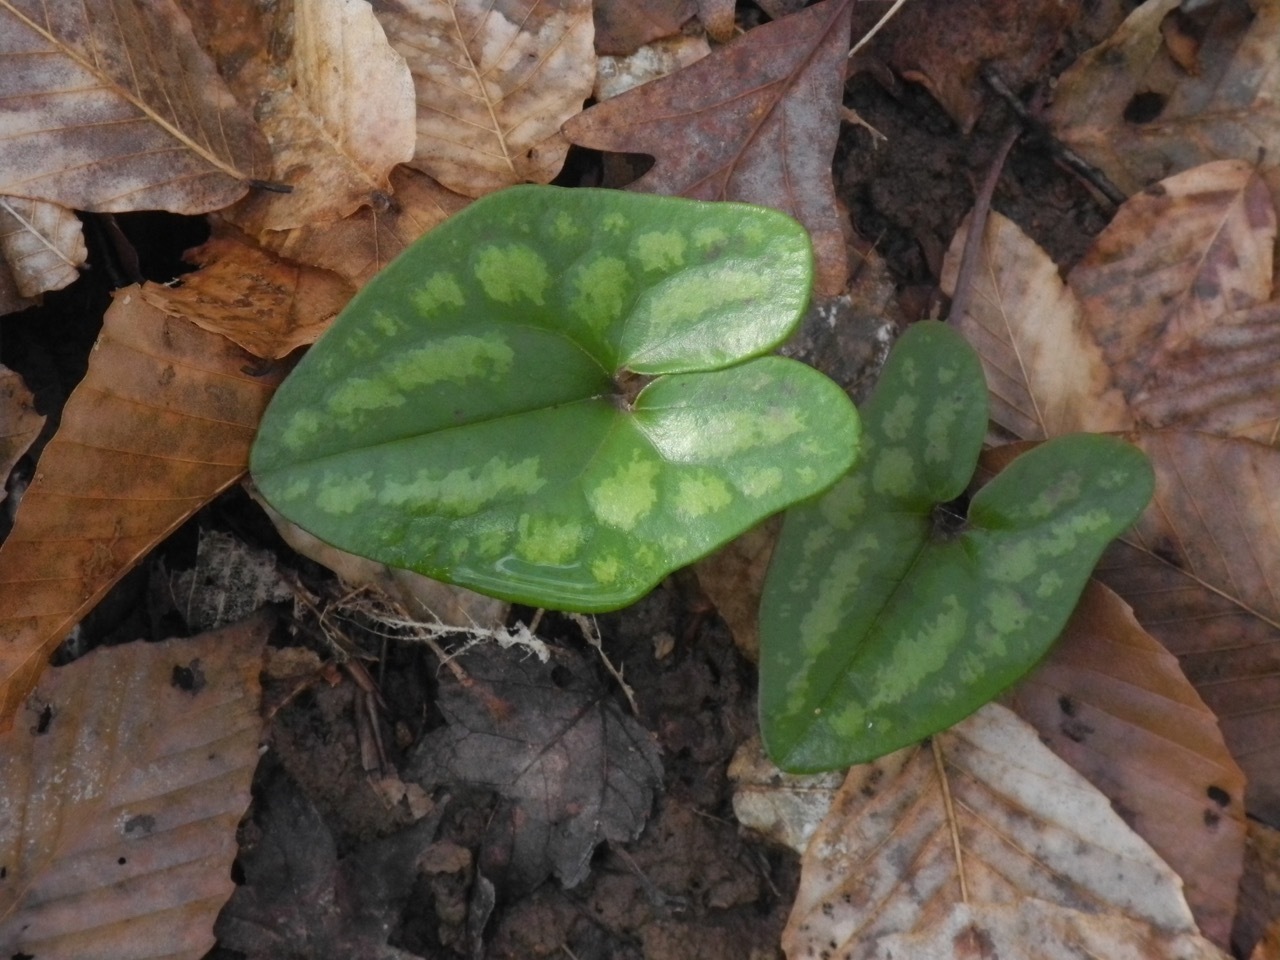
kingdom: Plantae
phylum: Tracheophyta
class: Magnoliopsida
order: Piperales
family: Aristolochiaceae
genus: Hexastylis
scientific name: Hexastylis arifolia
